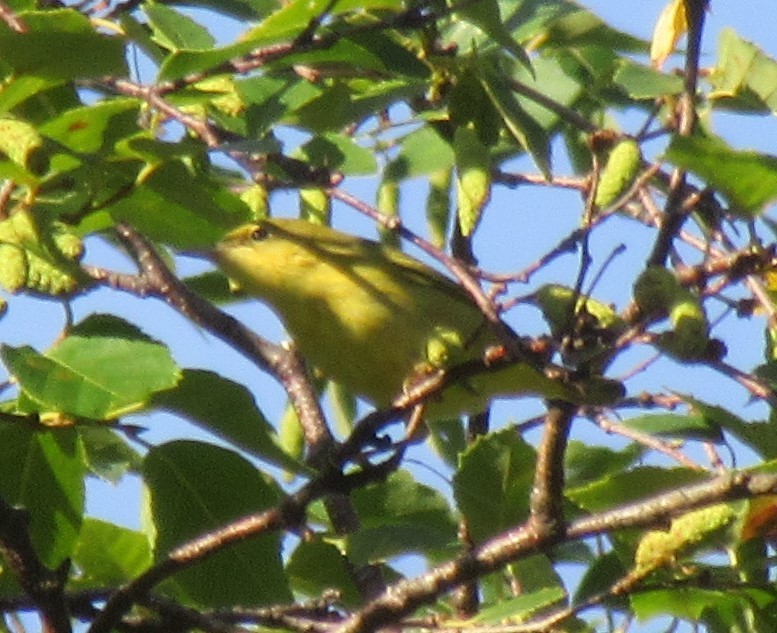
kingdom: Animalia
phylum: Chordata
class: Aves
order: Passeriformes
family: Parulidae
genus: Setophaga
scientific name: Setophaga petechia
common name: Yellow warbler
